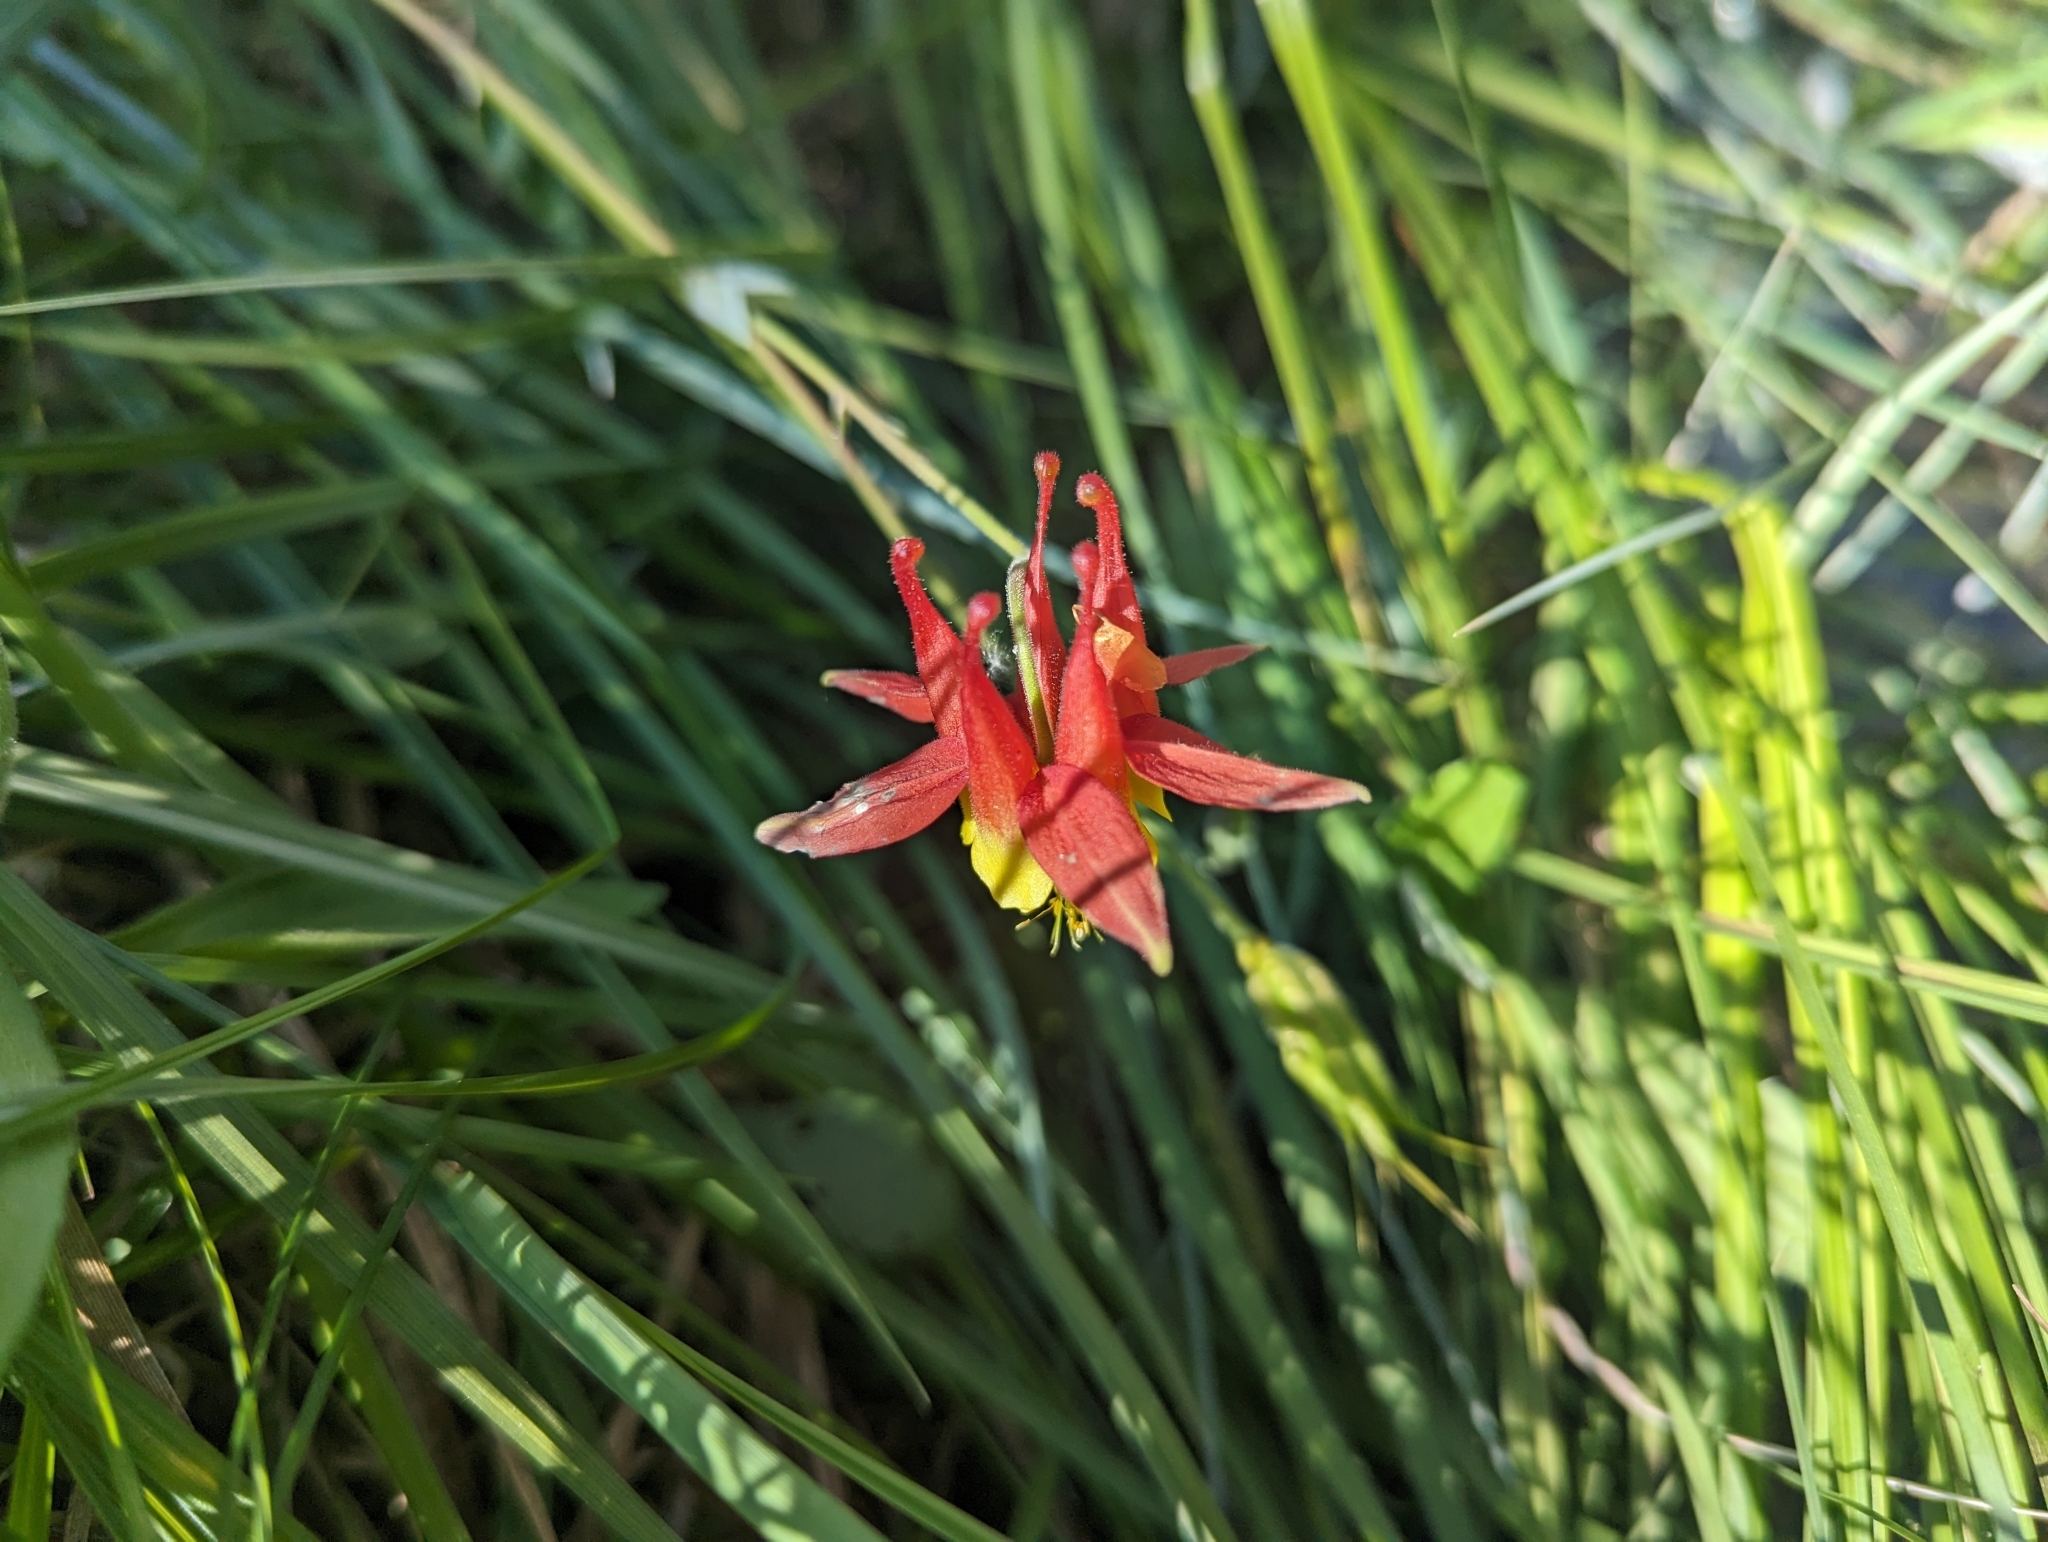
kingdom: Plantae
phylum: Tracheophyta
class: Magnoliopsida
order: Ranunculales
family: Ranunculaceae
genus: Aquilegia
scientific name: Aquilegia formosa
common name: Sitka columbine
